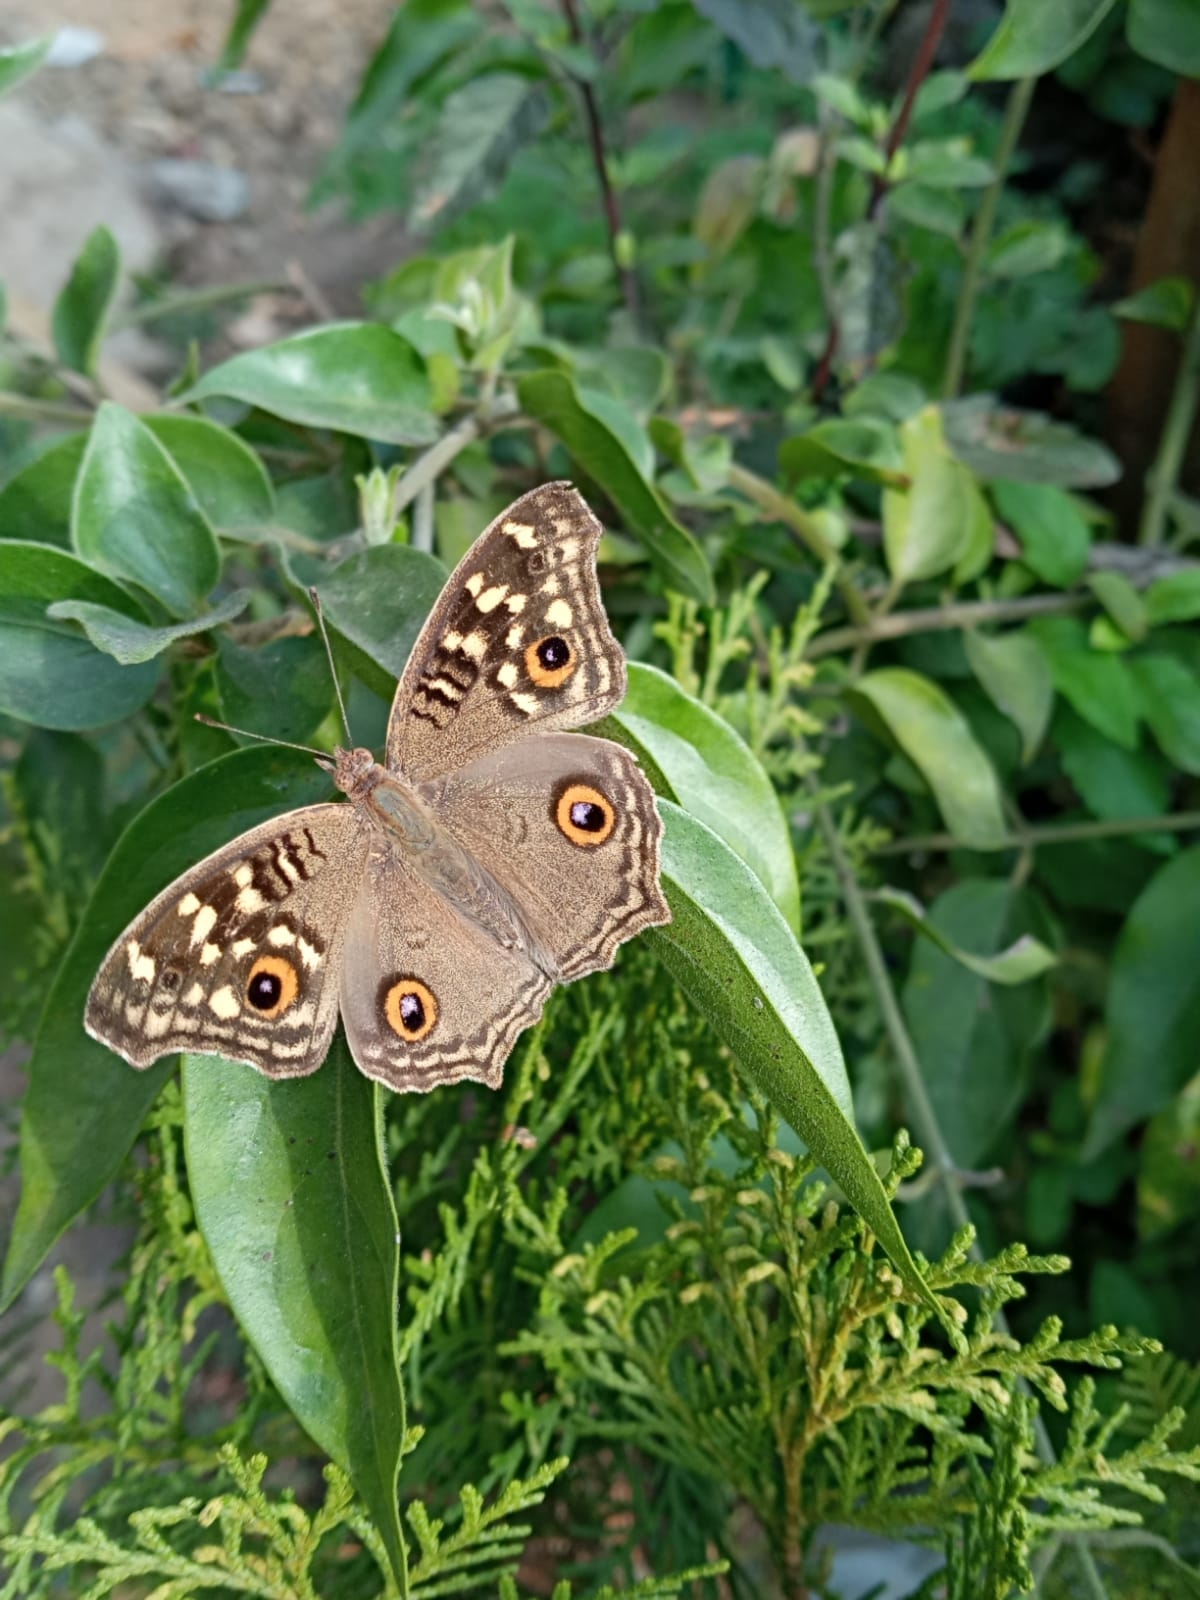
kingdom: Animalia
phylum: Arthropoda
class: Insecta
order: Lepidoptera
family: Nymphalidae
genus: Junonia
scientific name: Junonia lemonias
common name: Lemon pansy
